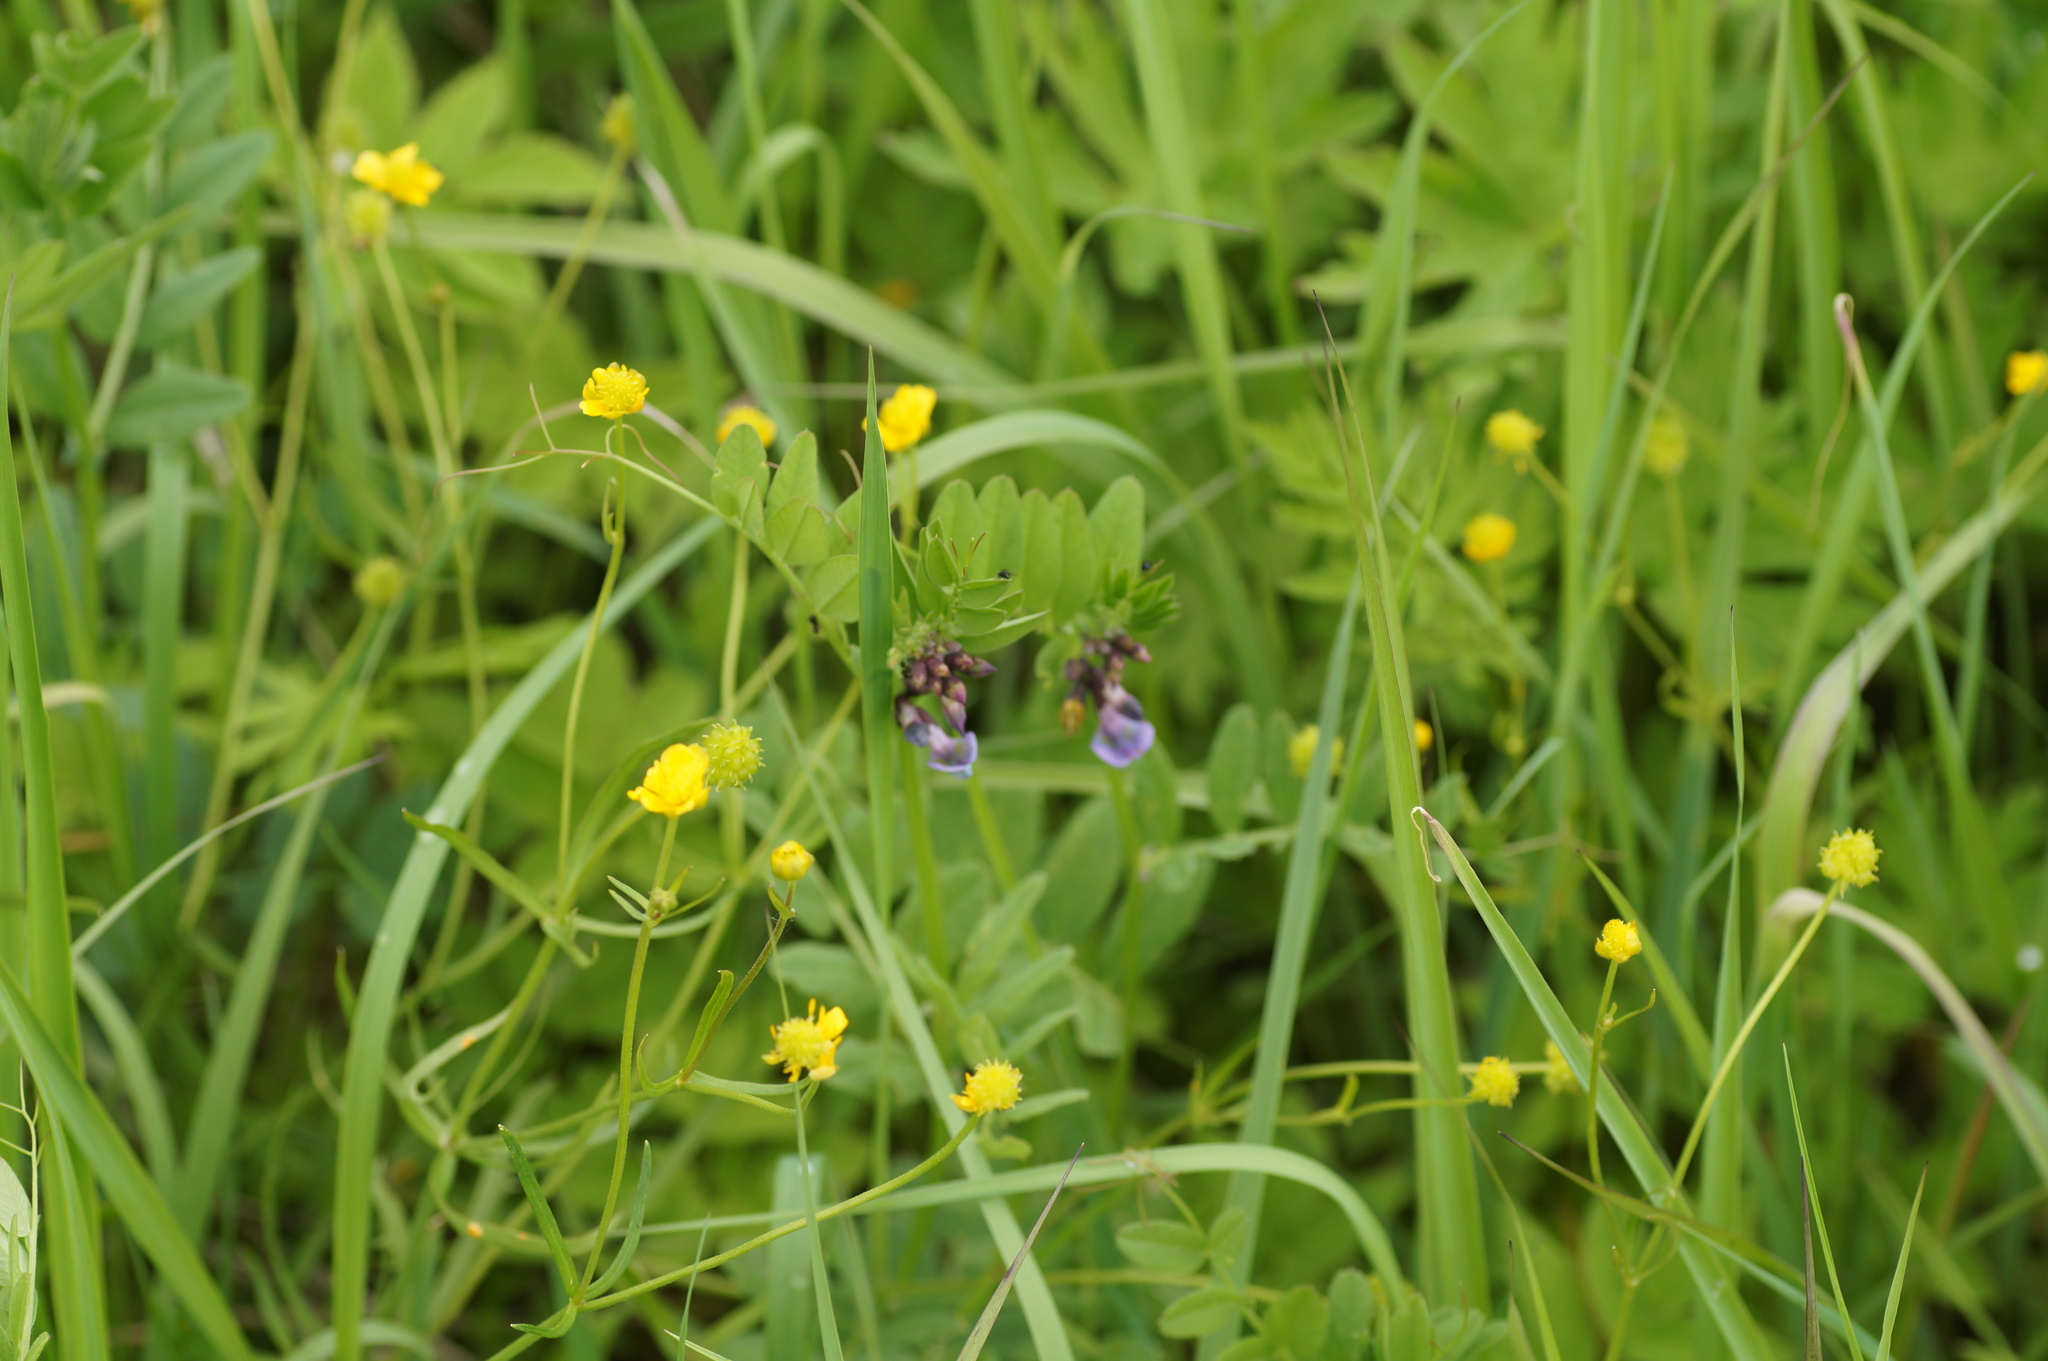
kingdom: Plantae
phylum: Tracheophyta
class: Magnoliopsida
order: Fabales
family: Fabaceae
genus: Vicia
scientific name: Vicia sepium
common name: Bush vetch
